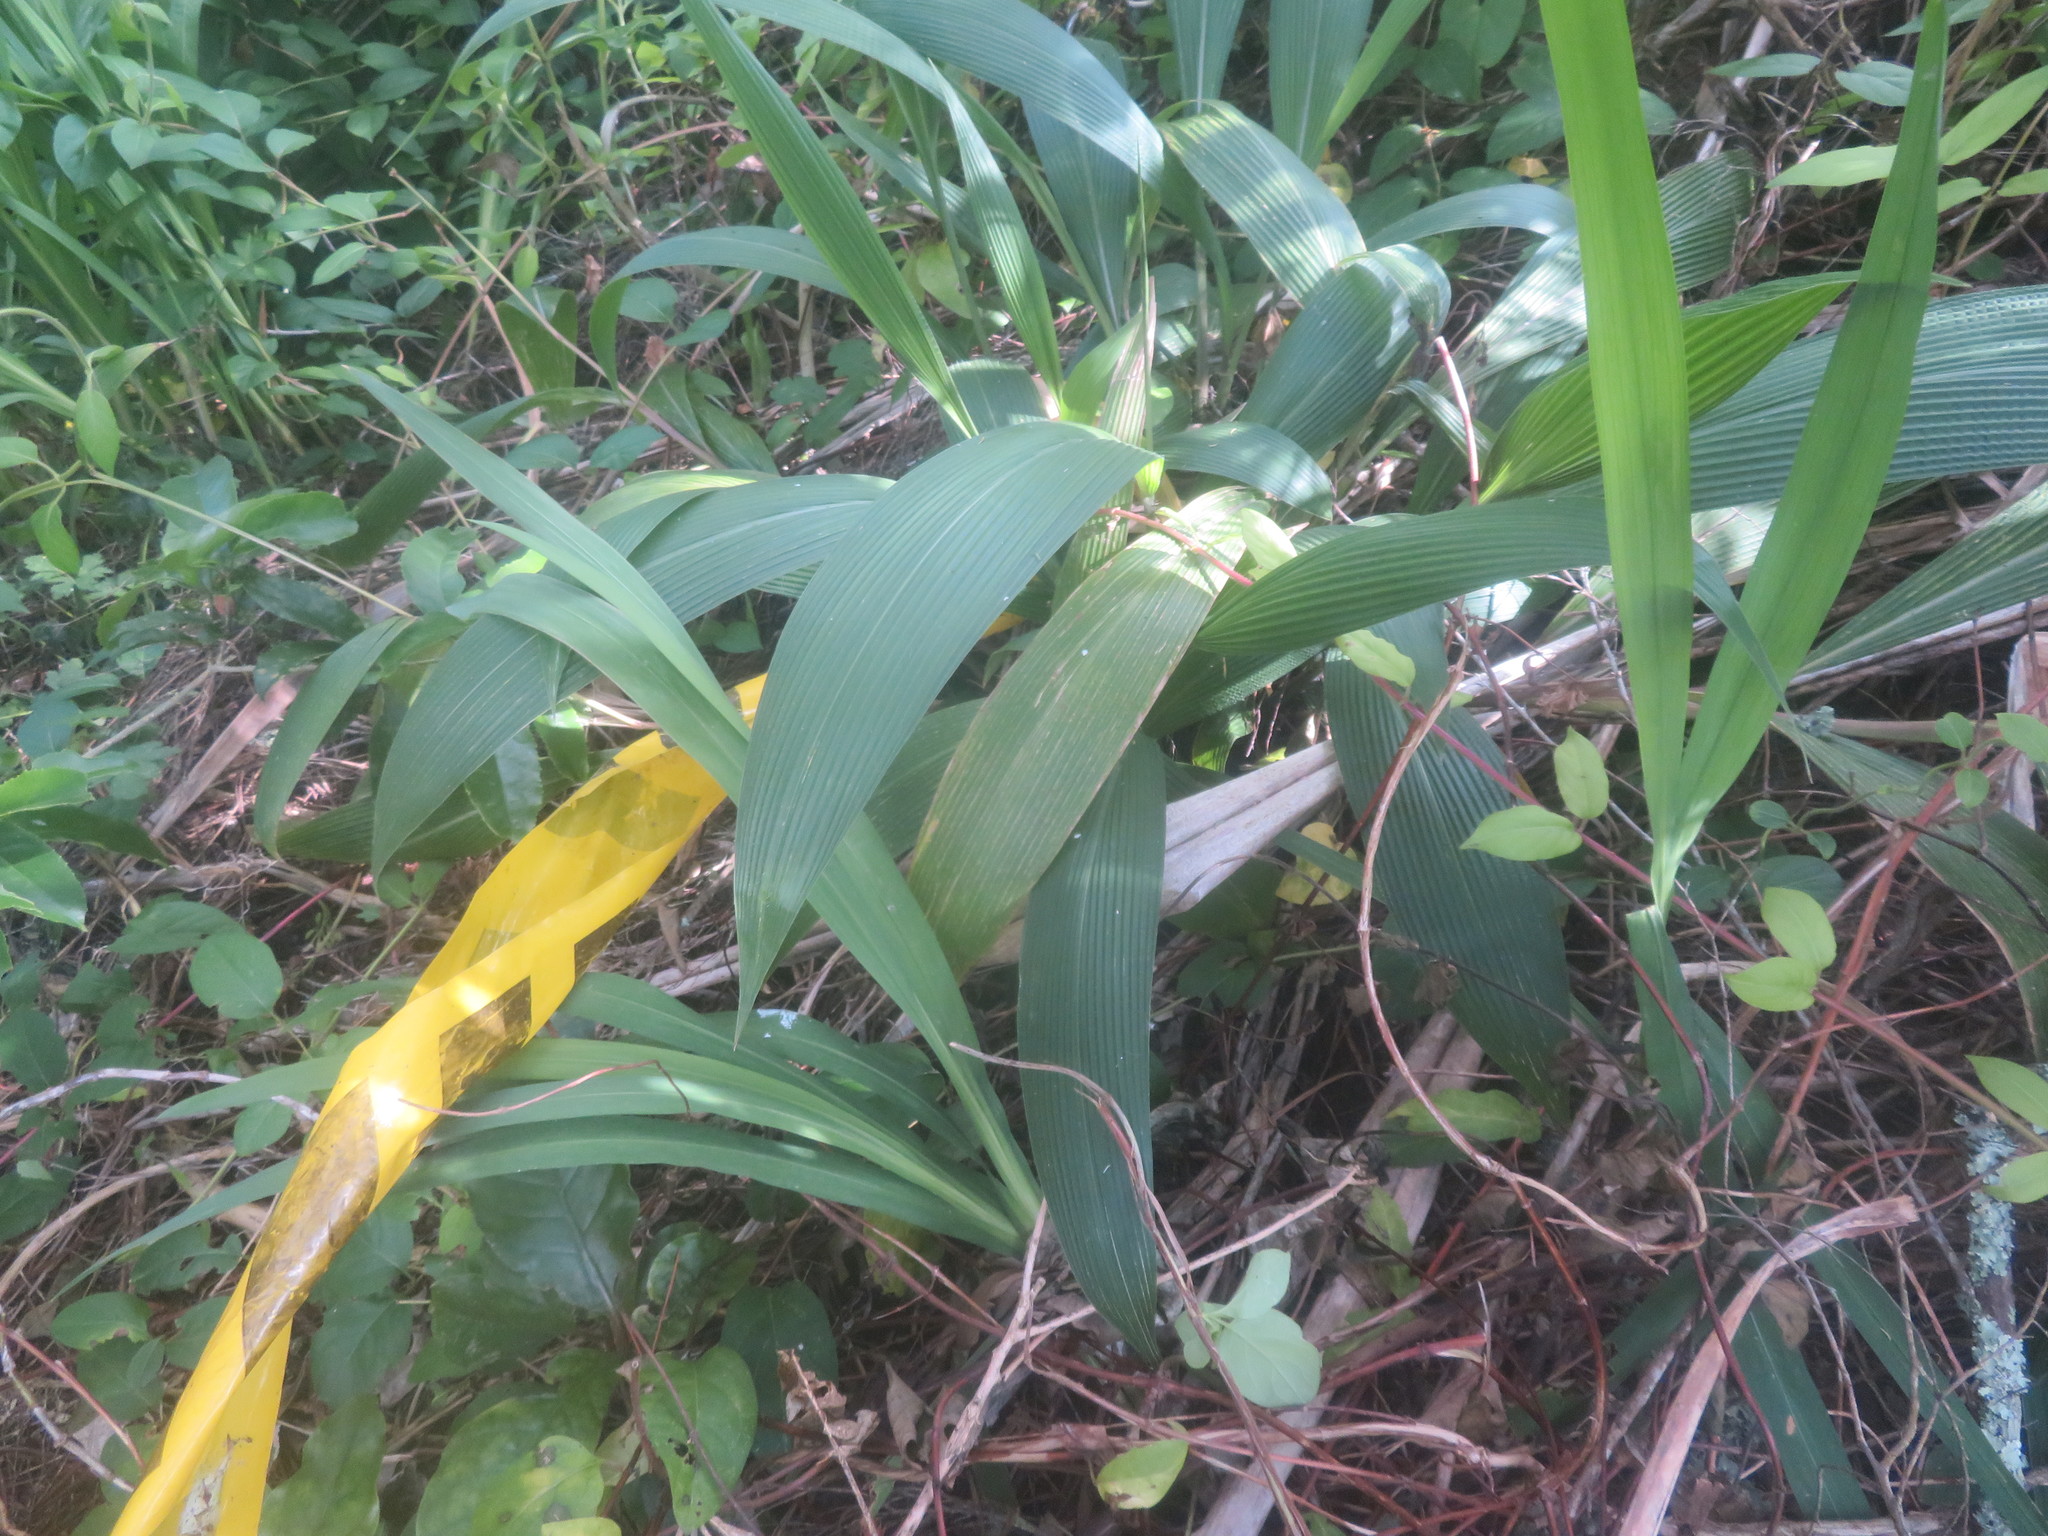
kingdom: Plantae
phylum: Tracheophyta
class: Liliopsida
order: Poales
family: Poaceae
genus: Setaria
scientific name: Setaria palmifolia
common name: Broadleaved bristlegrass
